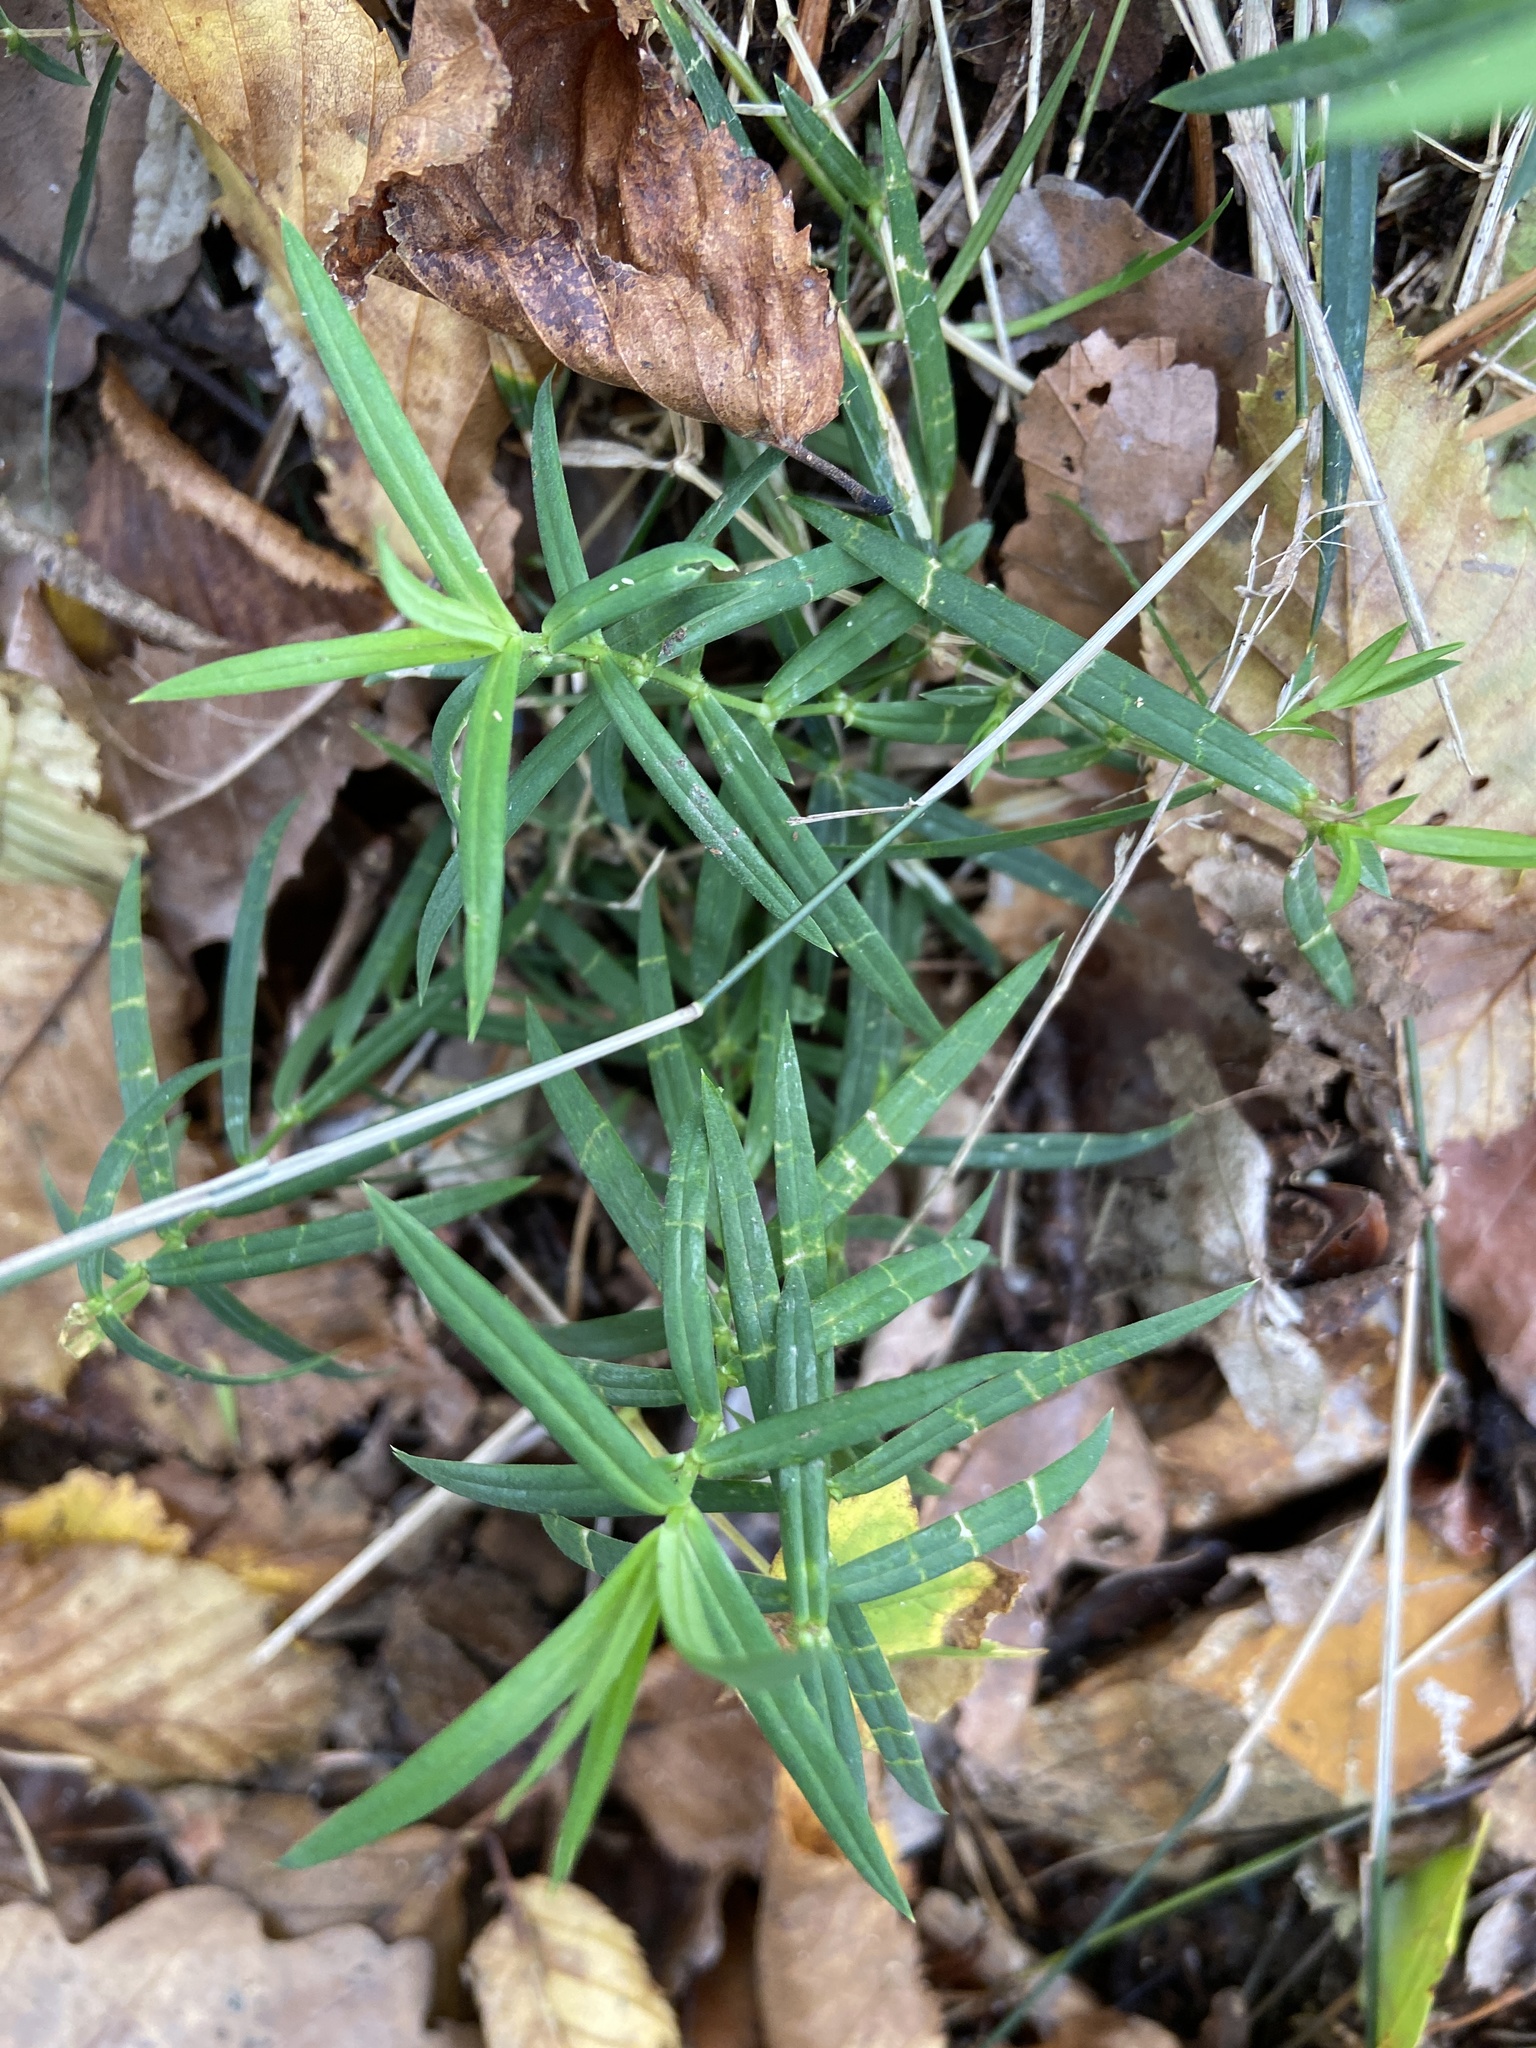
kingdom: Plantae
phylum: Tracheophyta
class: Magnoliopsida
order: Caryophyllales
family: Caryophyllaceae
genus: Rabelera
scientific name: Rabelera holostea
